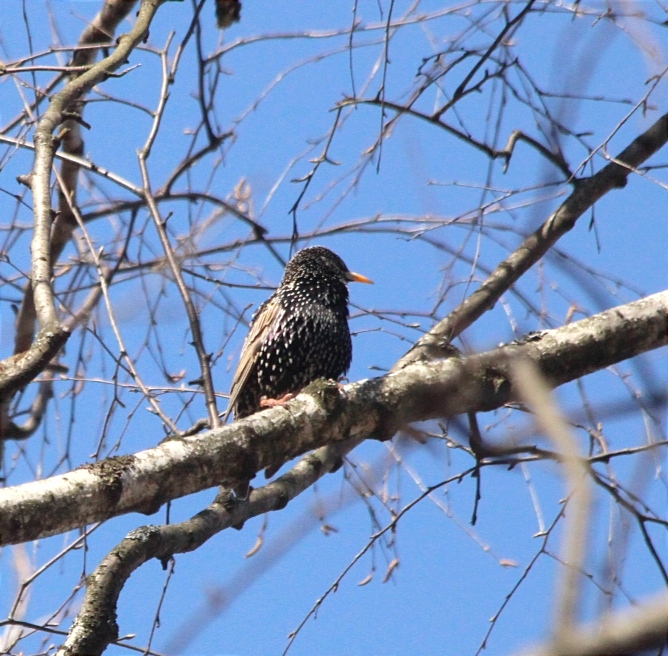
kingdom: Animalia
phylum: Chordata
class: Aves
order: Passeriformes
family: Sturnidae
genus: Sturnus
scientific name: Sturnus vulgaris
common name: Common starling
